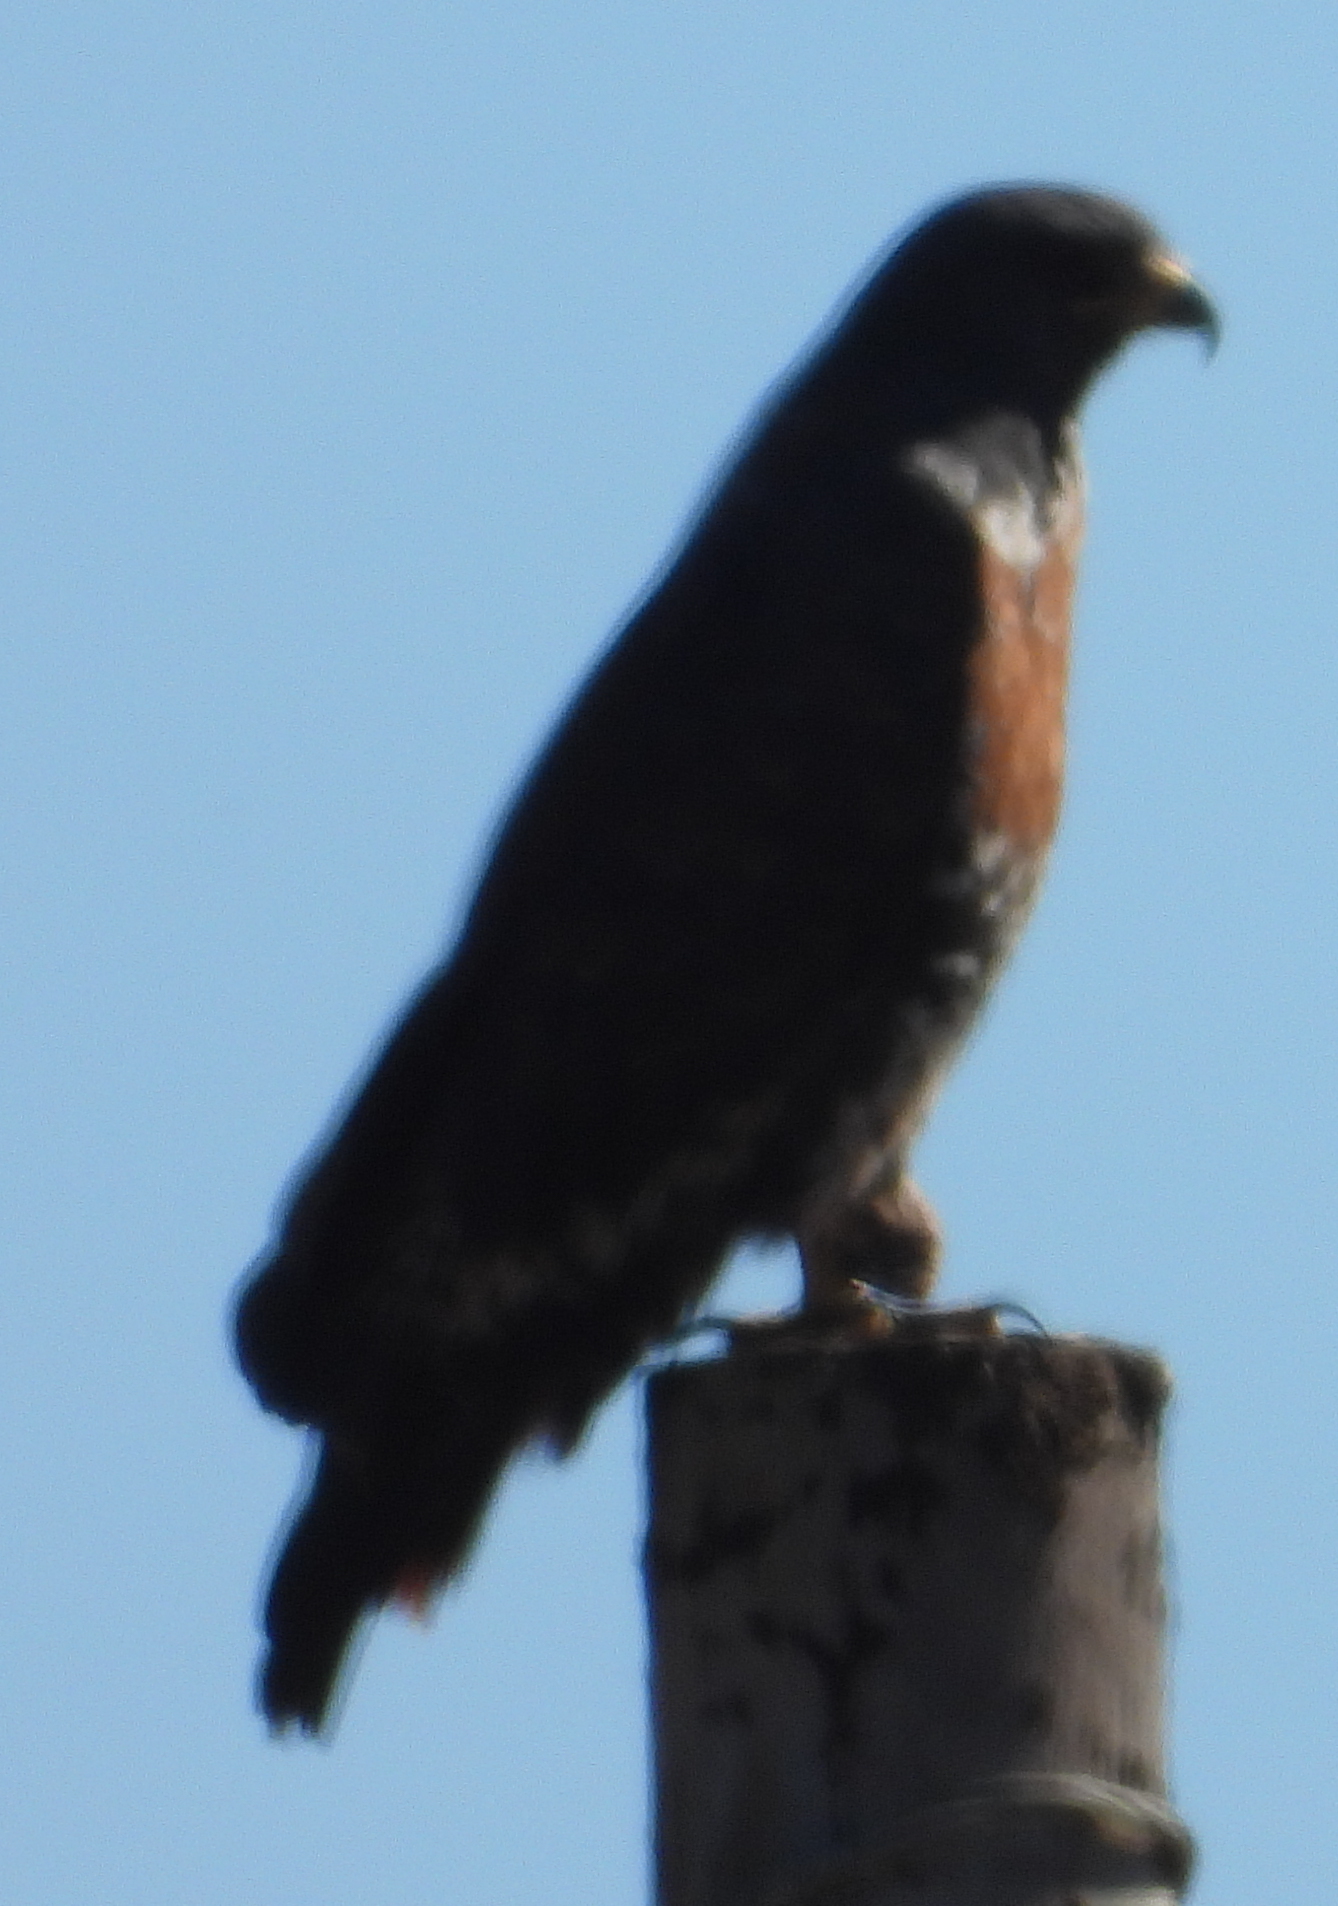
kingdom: Animalia
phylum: Chordata
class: Aves
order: Accipitriformes
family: Accipitridae
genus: Buteo
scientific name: Buteo rufofuscus
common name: Jackal buzzard
